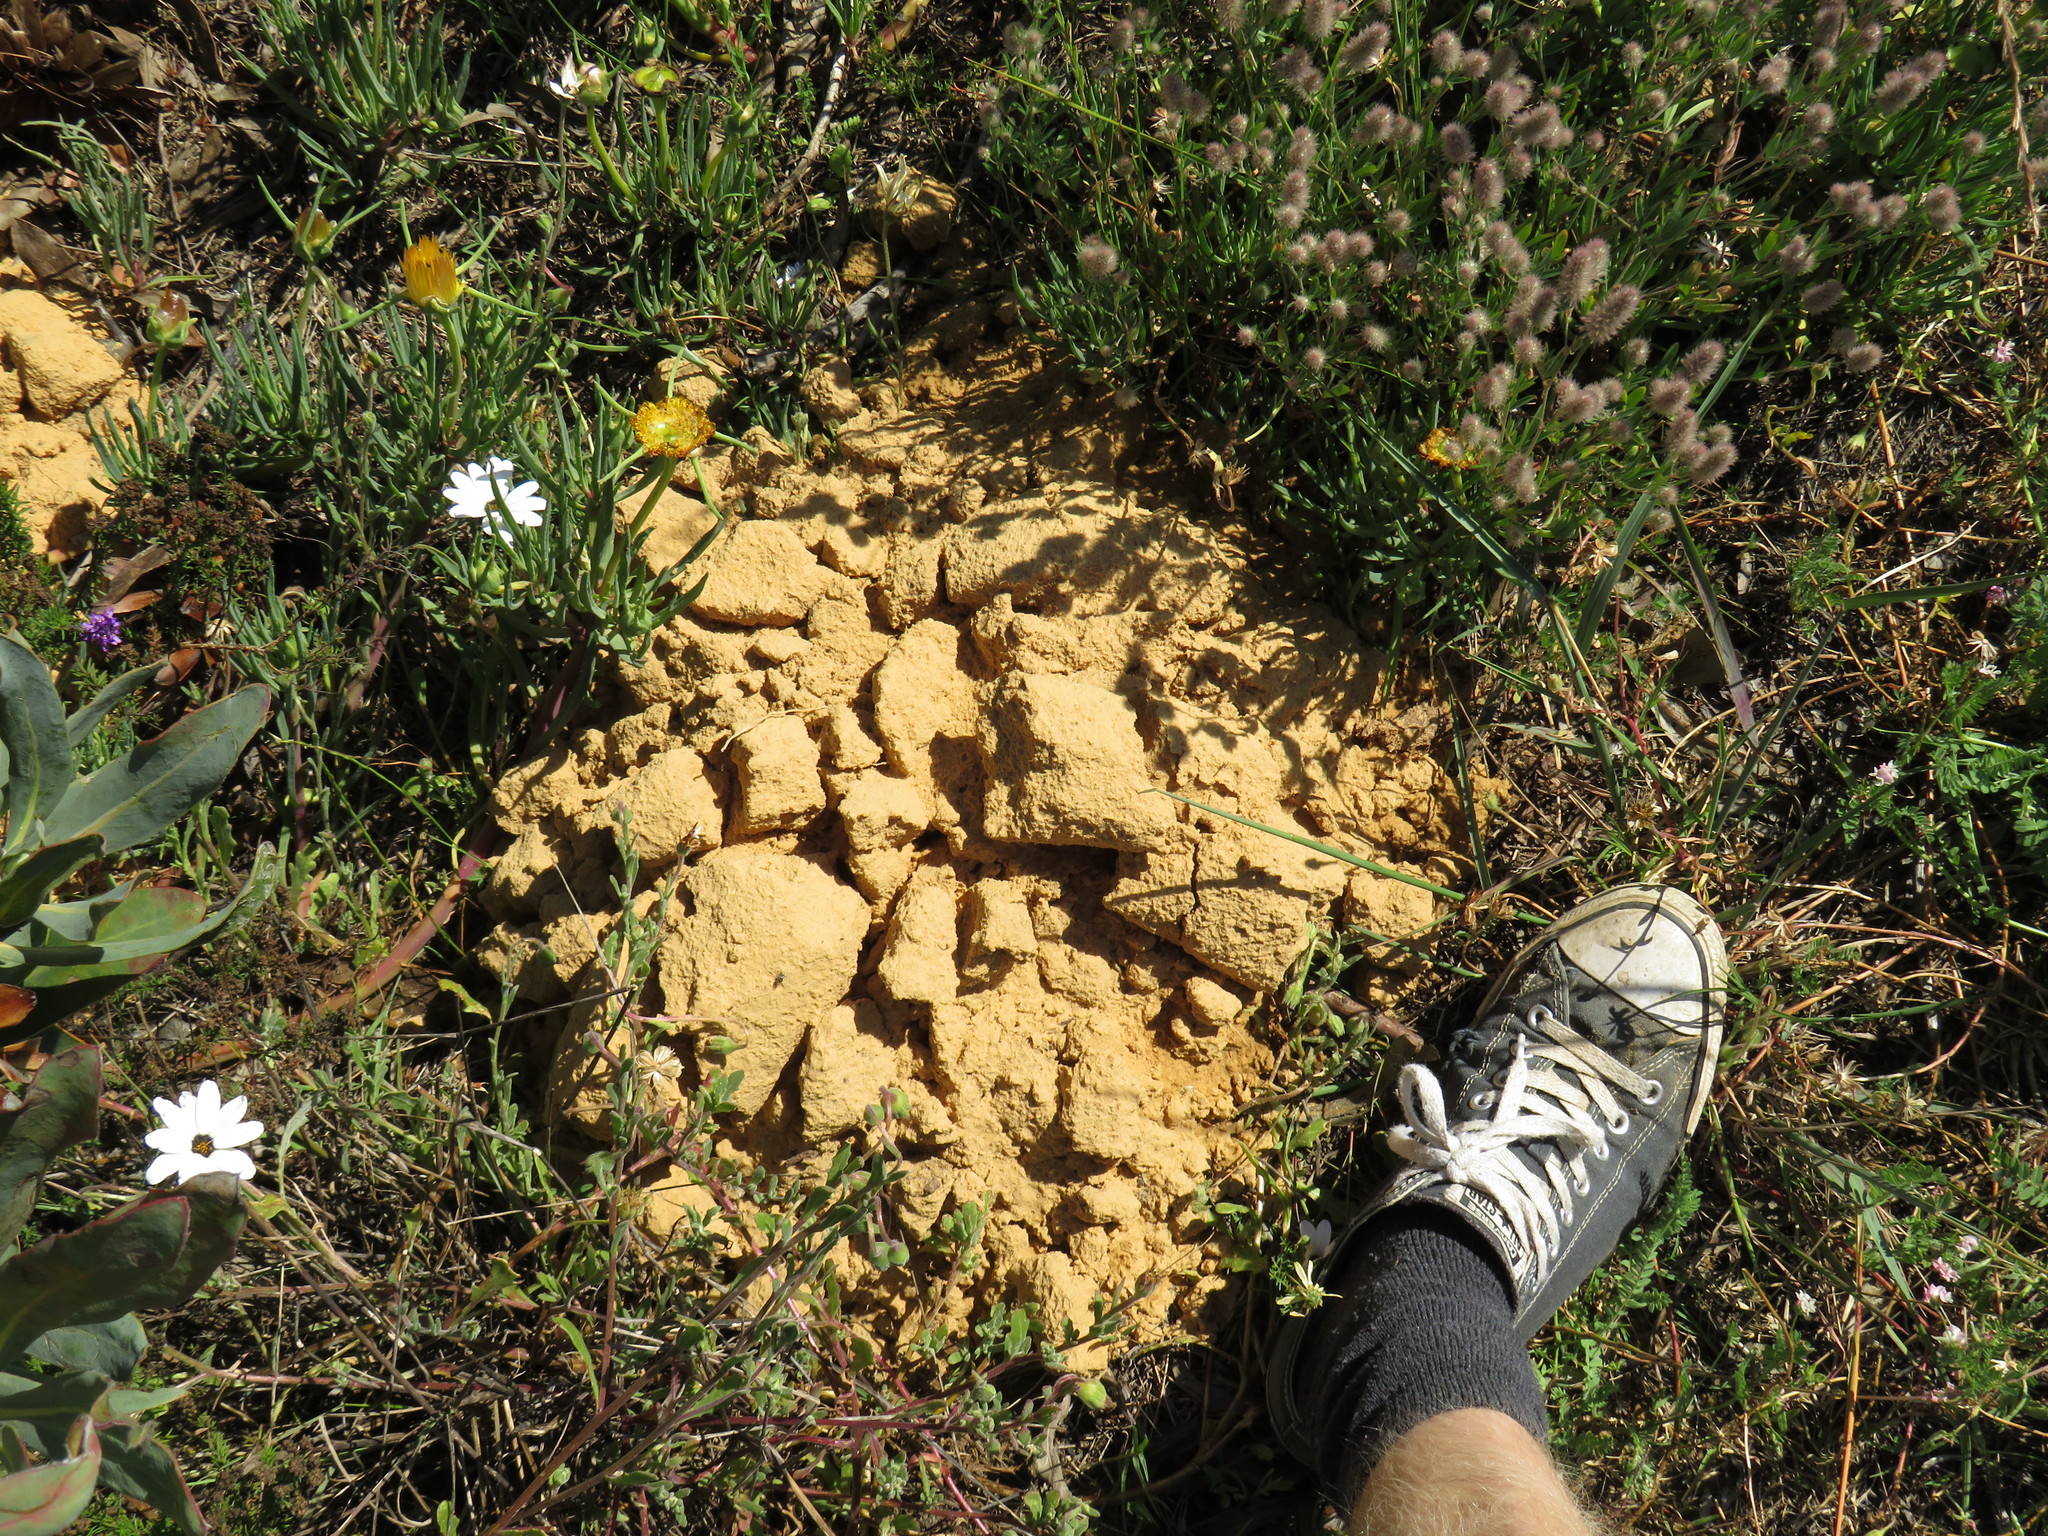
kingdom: Animalia
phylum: Chordata
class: Mammalia
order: Rodentia
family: Bathyergidae
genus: Bathyergus
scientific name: Bathyergus suillus
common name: Cape dune mole rat
